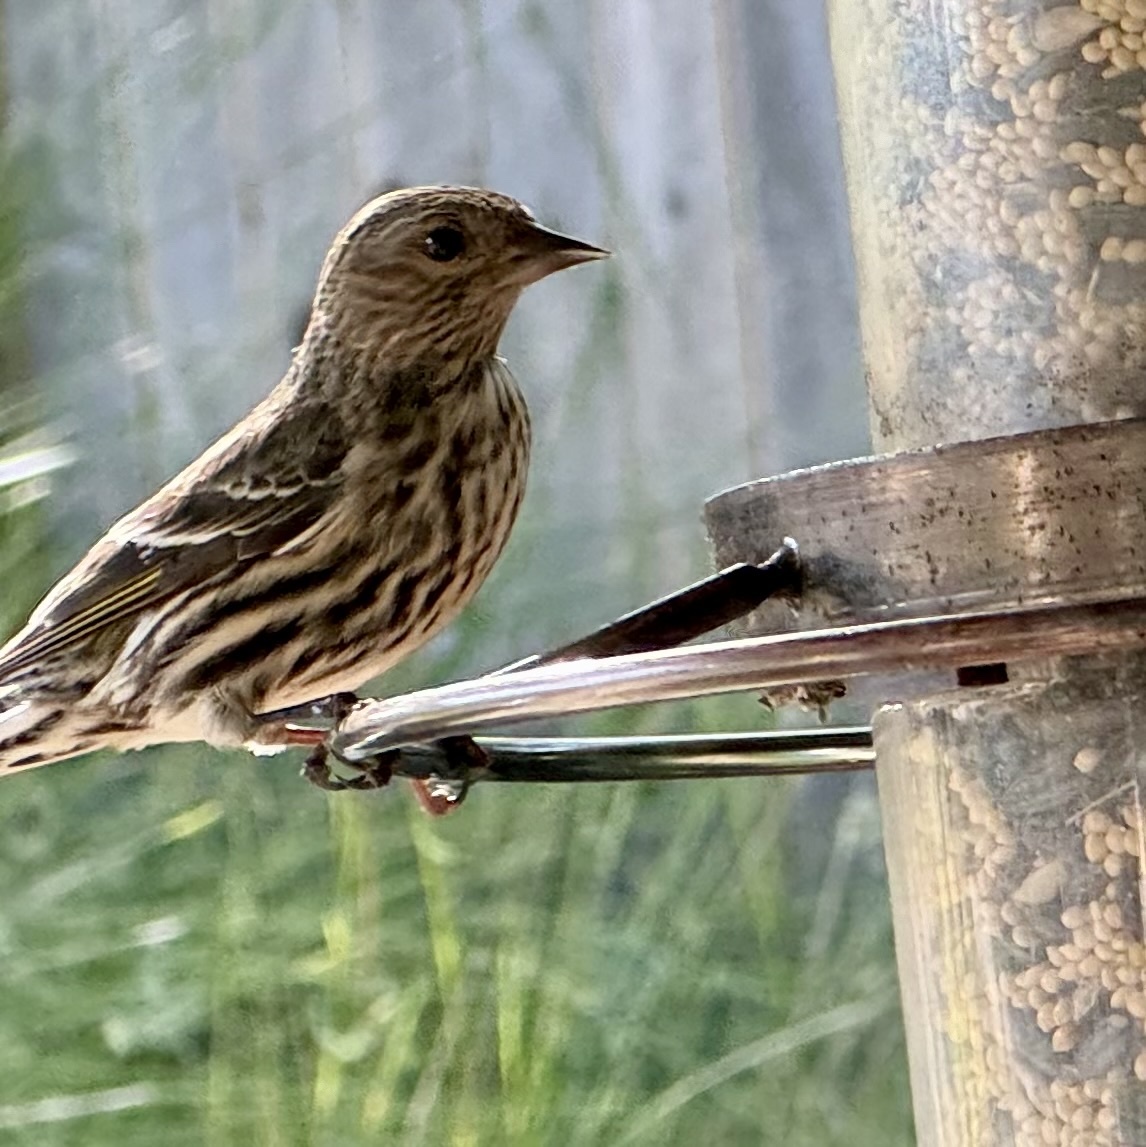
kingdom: Animalia
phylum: Chordata
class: Aves
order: Passeriformes
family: Fringillidae
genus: Spinus
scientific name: Spinus pinus
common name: Pine siskin
